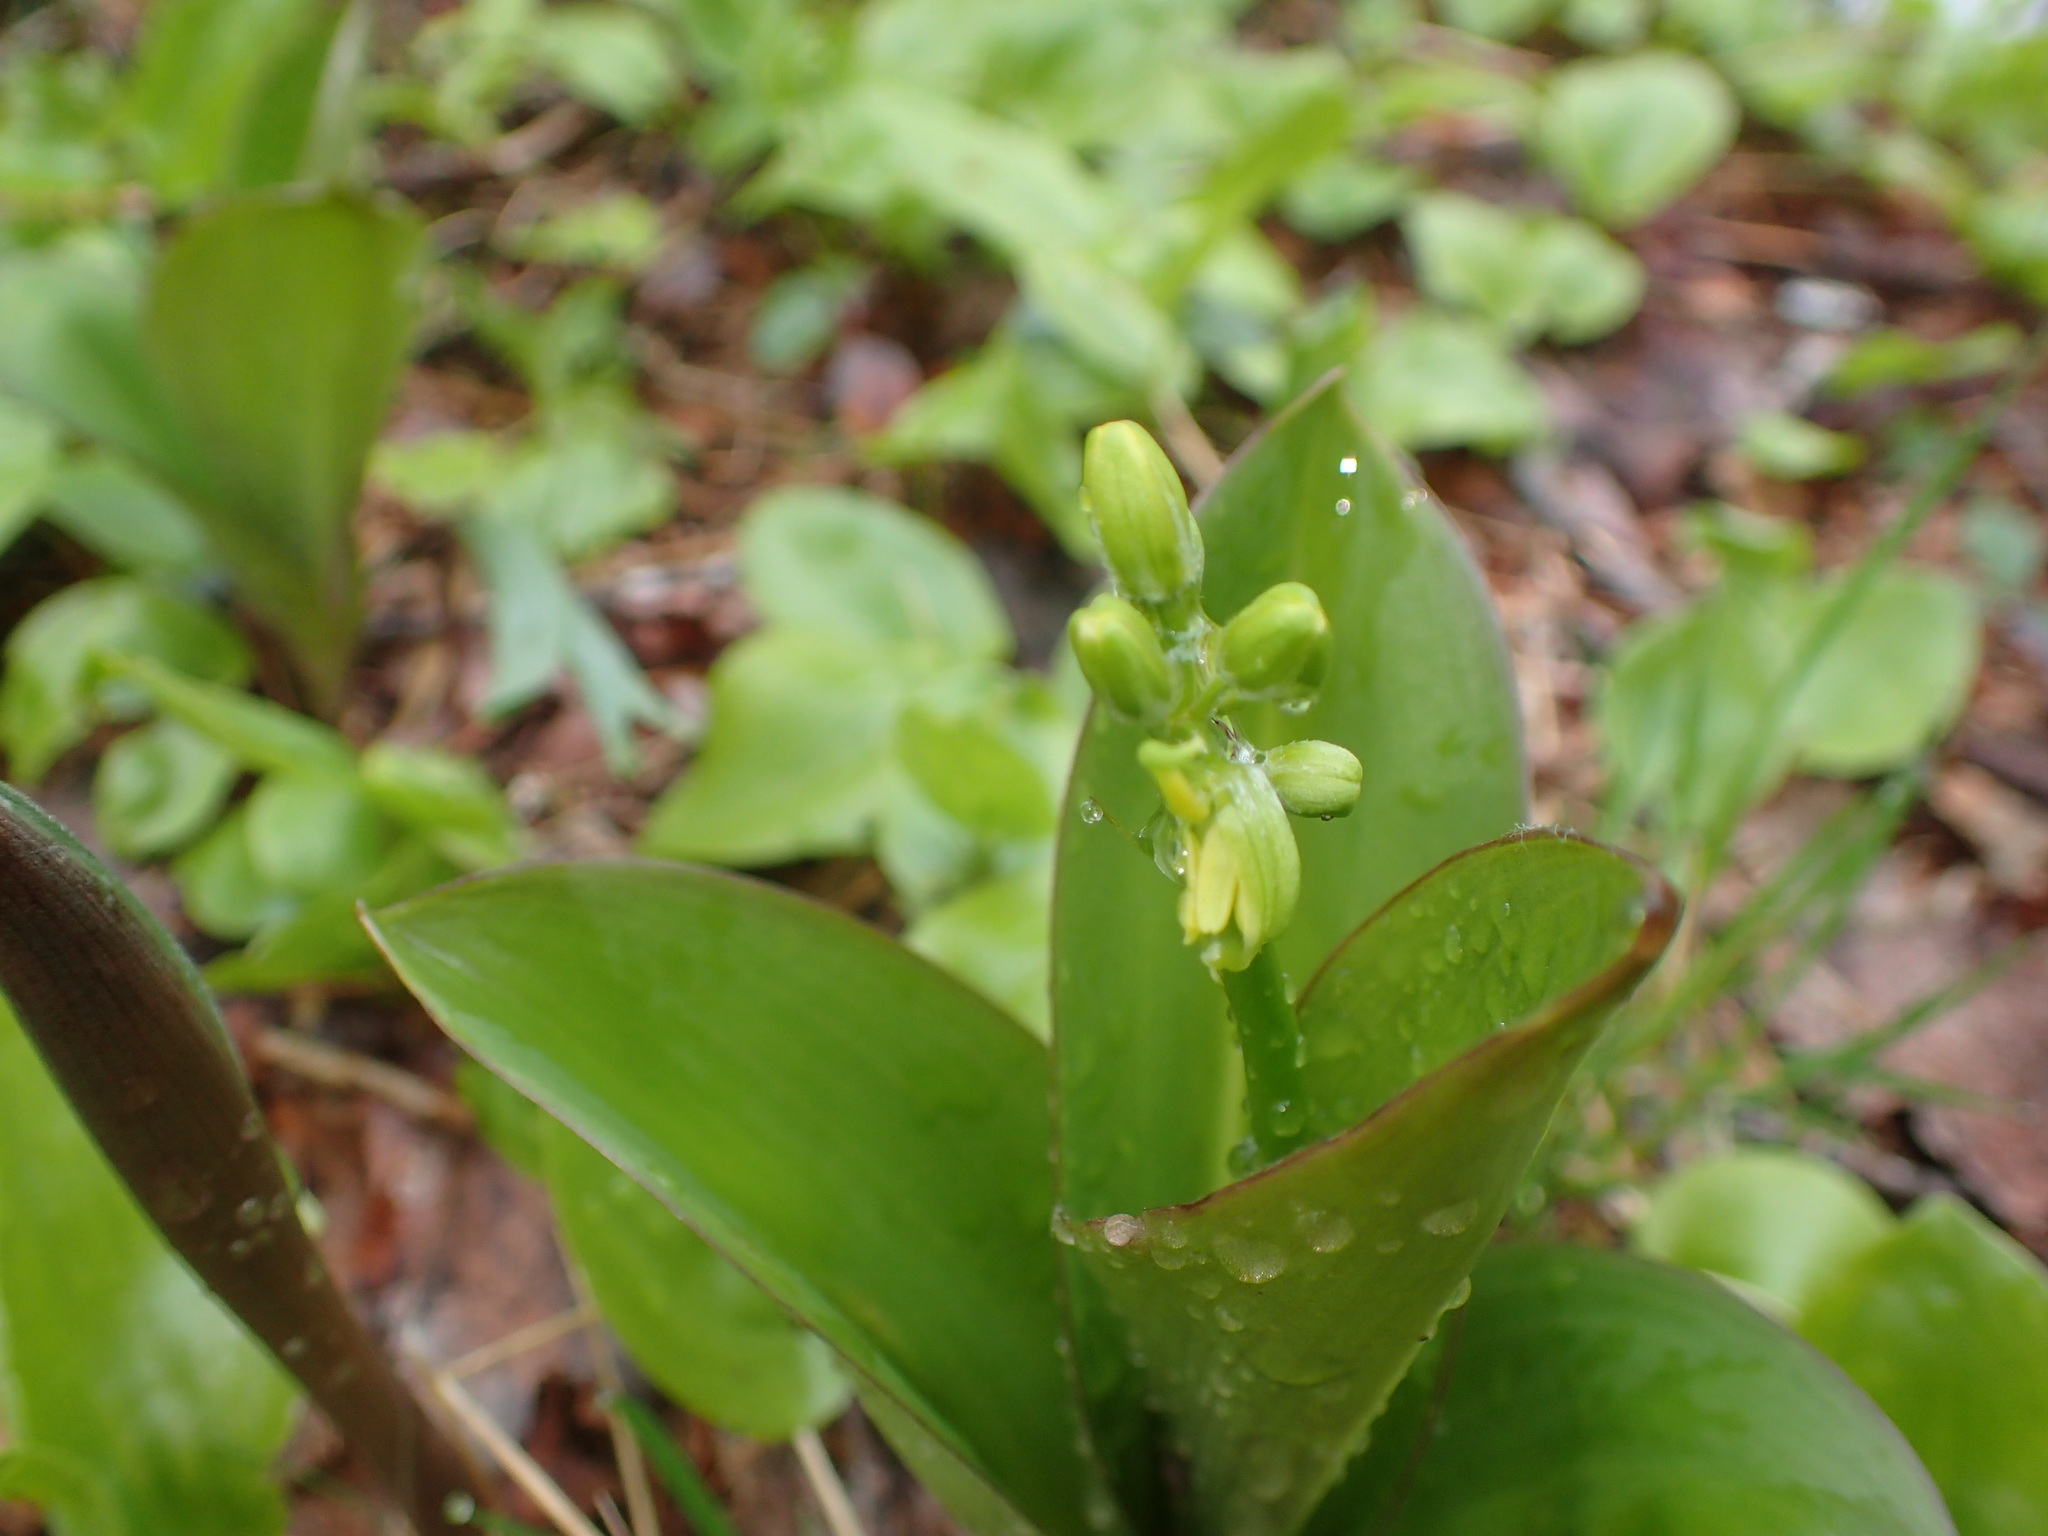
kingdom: Plantae
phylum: Tracheophyta
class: Liliopsida
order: Liliales
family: Liliaceae
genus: Clintonia
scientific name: Clintonia borealis
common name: Yellow clintonia
